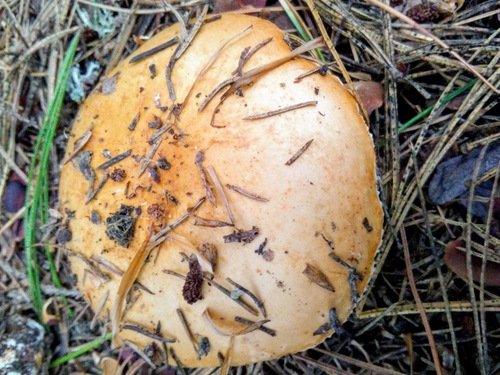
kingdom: Fungi
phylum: Basidiomycota
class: Agaricomycetes
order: Russulales
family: Russulaceae
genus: Russula
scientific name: Russula
